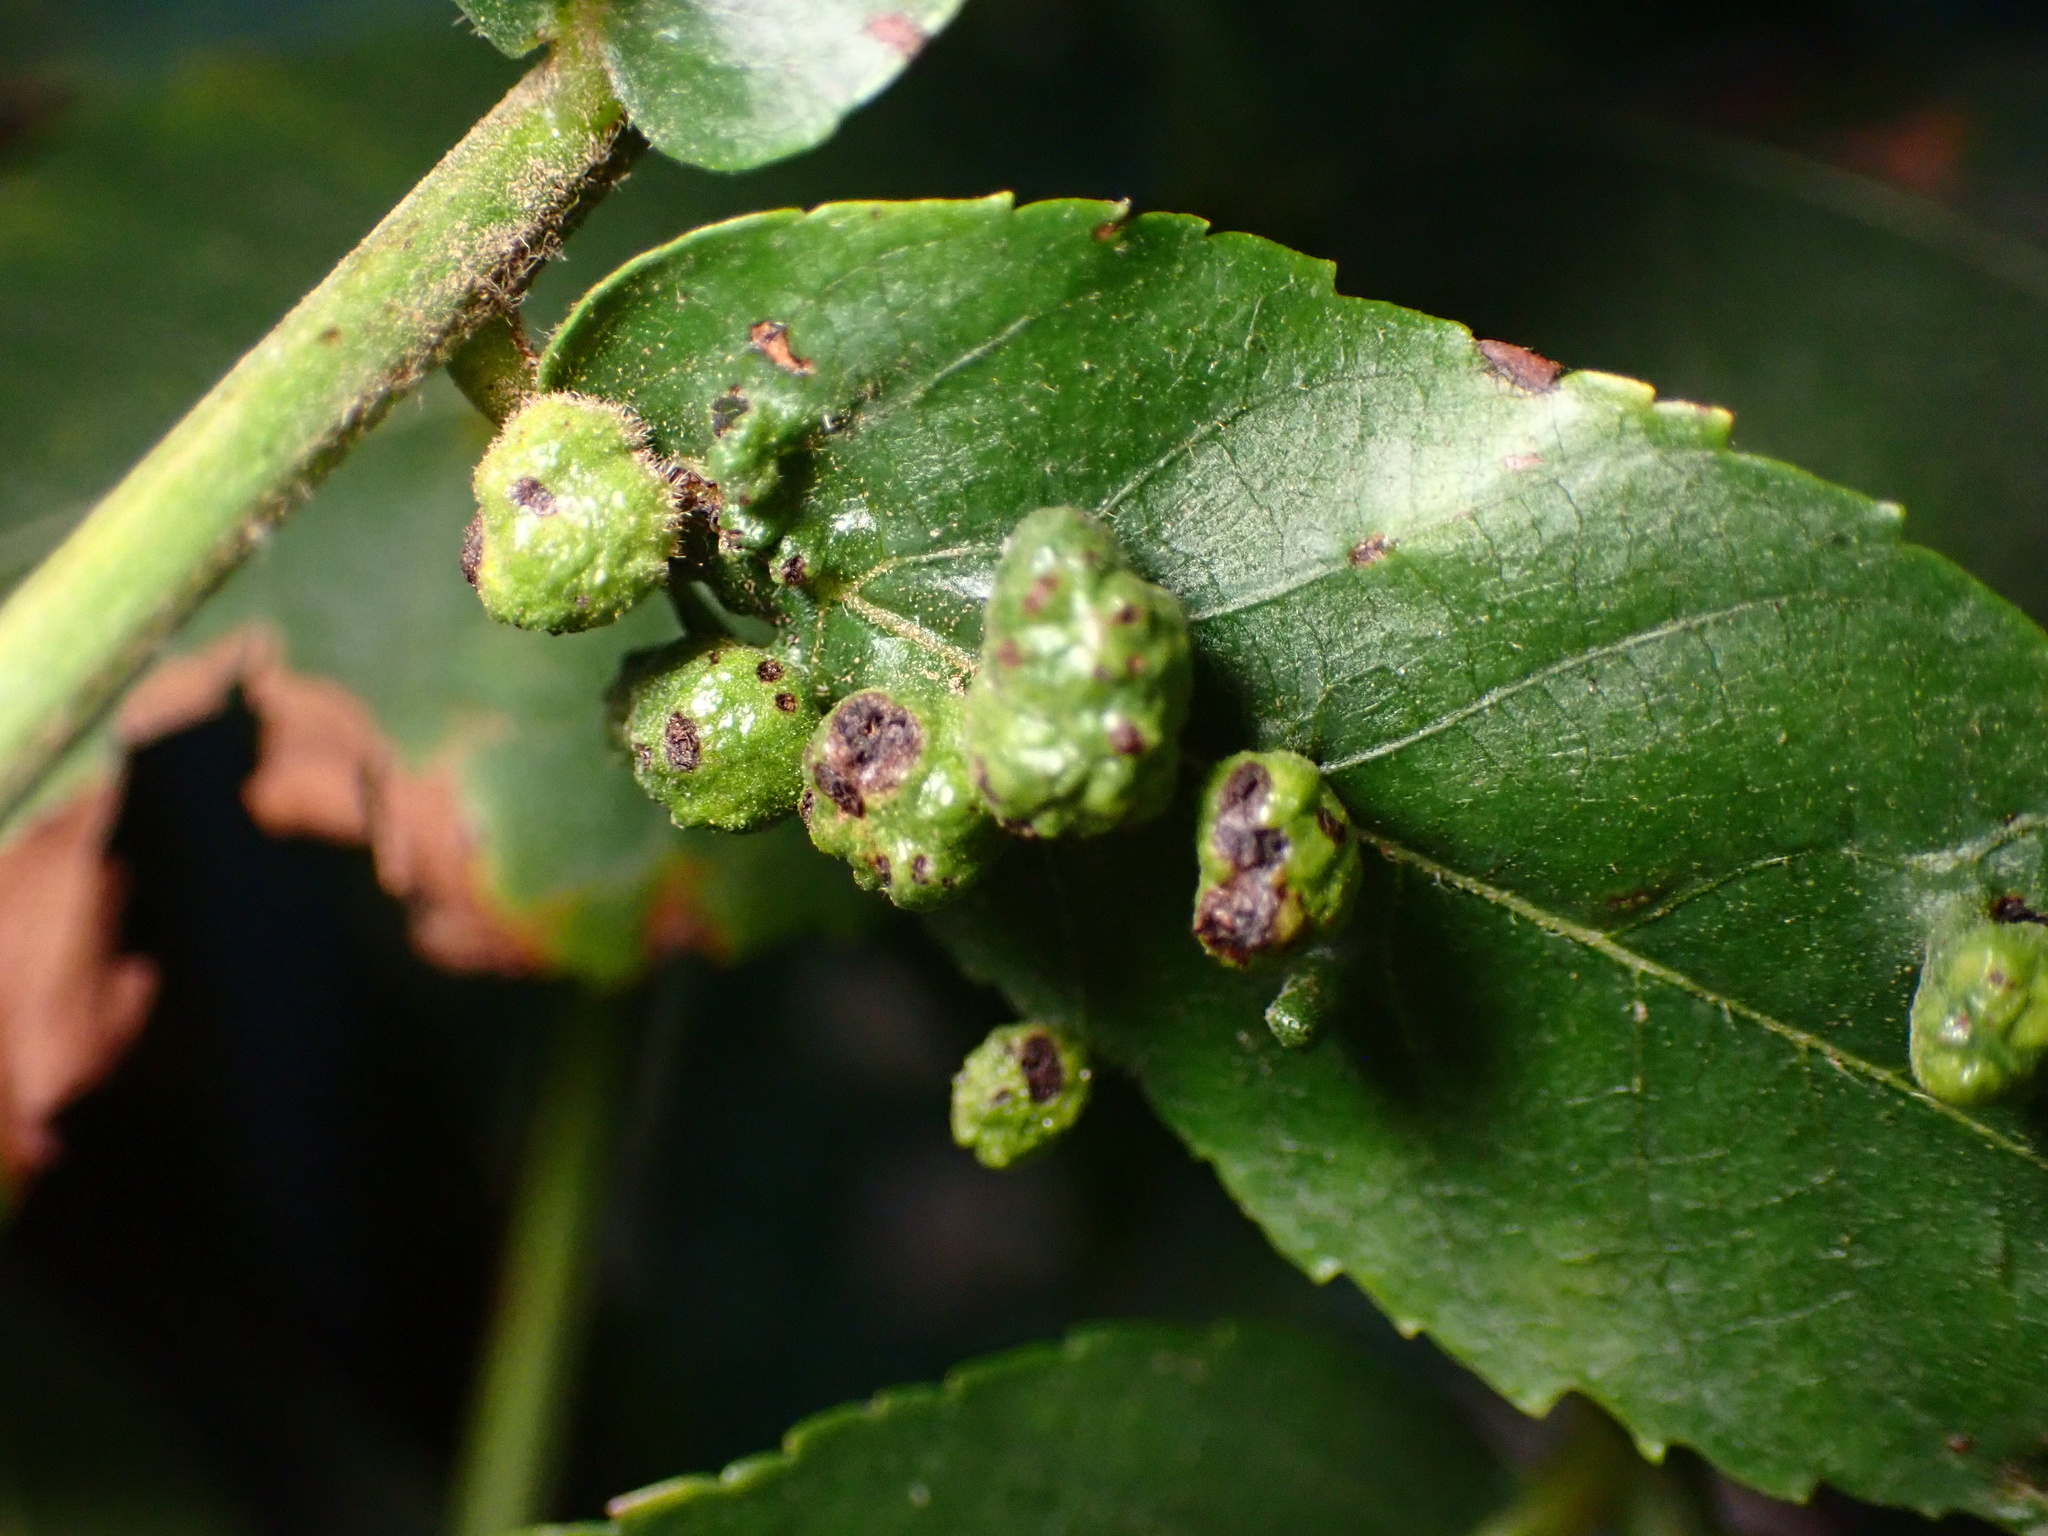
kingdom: Animalia
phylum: Arthropoda
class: Arachnida
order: Trombidiformes
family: Eriophyidae
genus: Aceria
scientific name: Aceria brachytarsus
